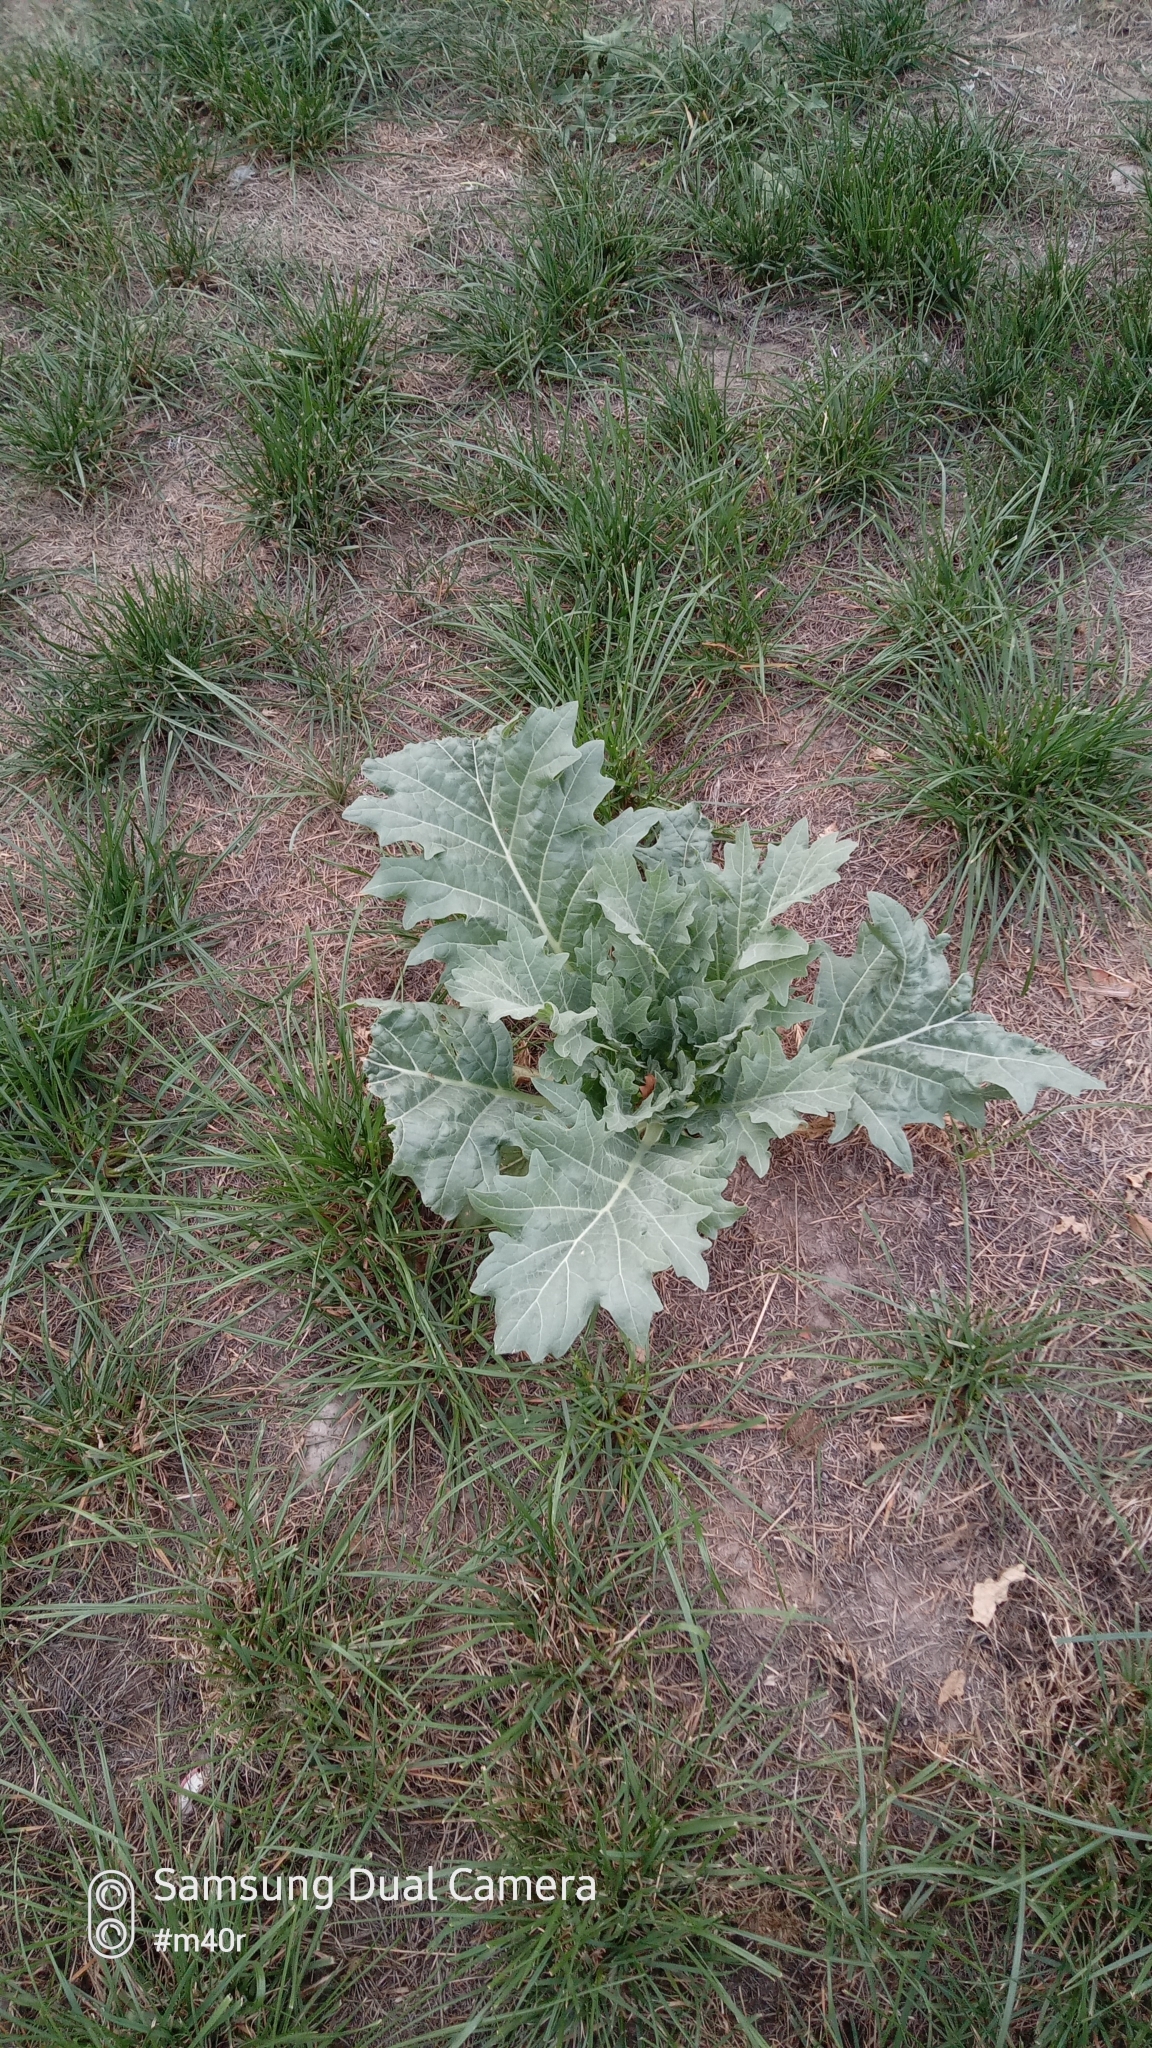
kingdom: Plantae
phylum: Tracheophyta
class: Magnoliopsida
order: Solanales
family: Solanaceae
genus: Hyoscyamus
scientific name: Hyoscyamus niger
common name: Henbane
